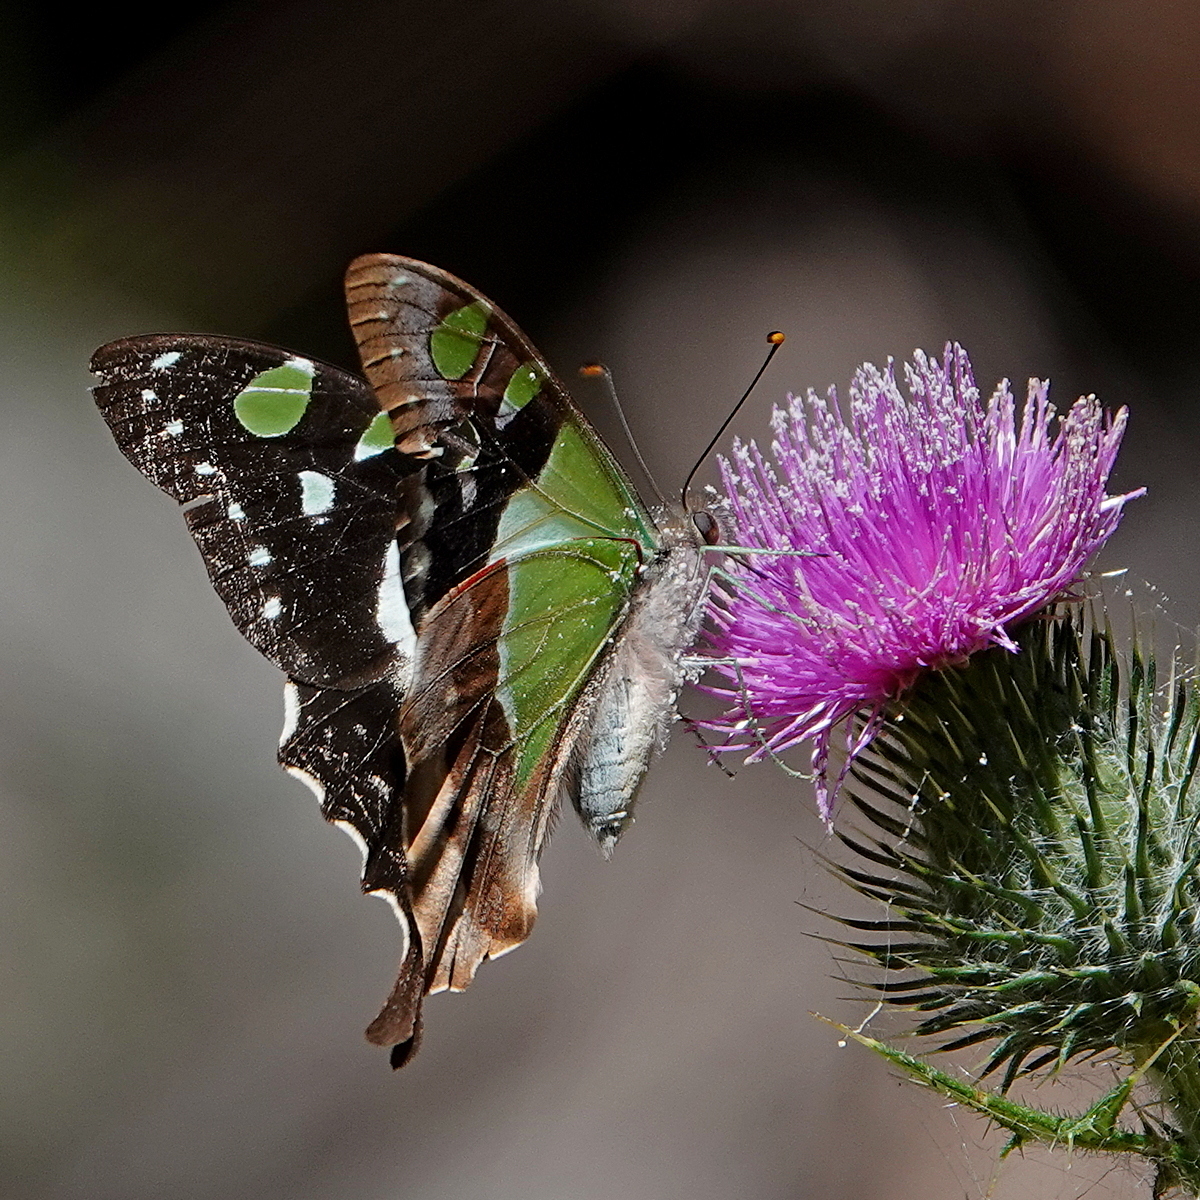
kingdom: Animalia
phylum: Arthropoda
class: Insecta
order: Lepidoptera
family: Papilionidae
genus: Graphium
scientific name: Graphium macleayanus
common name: Macleay's swallowtail
